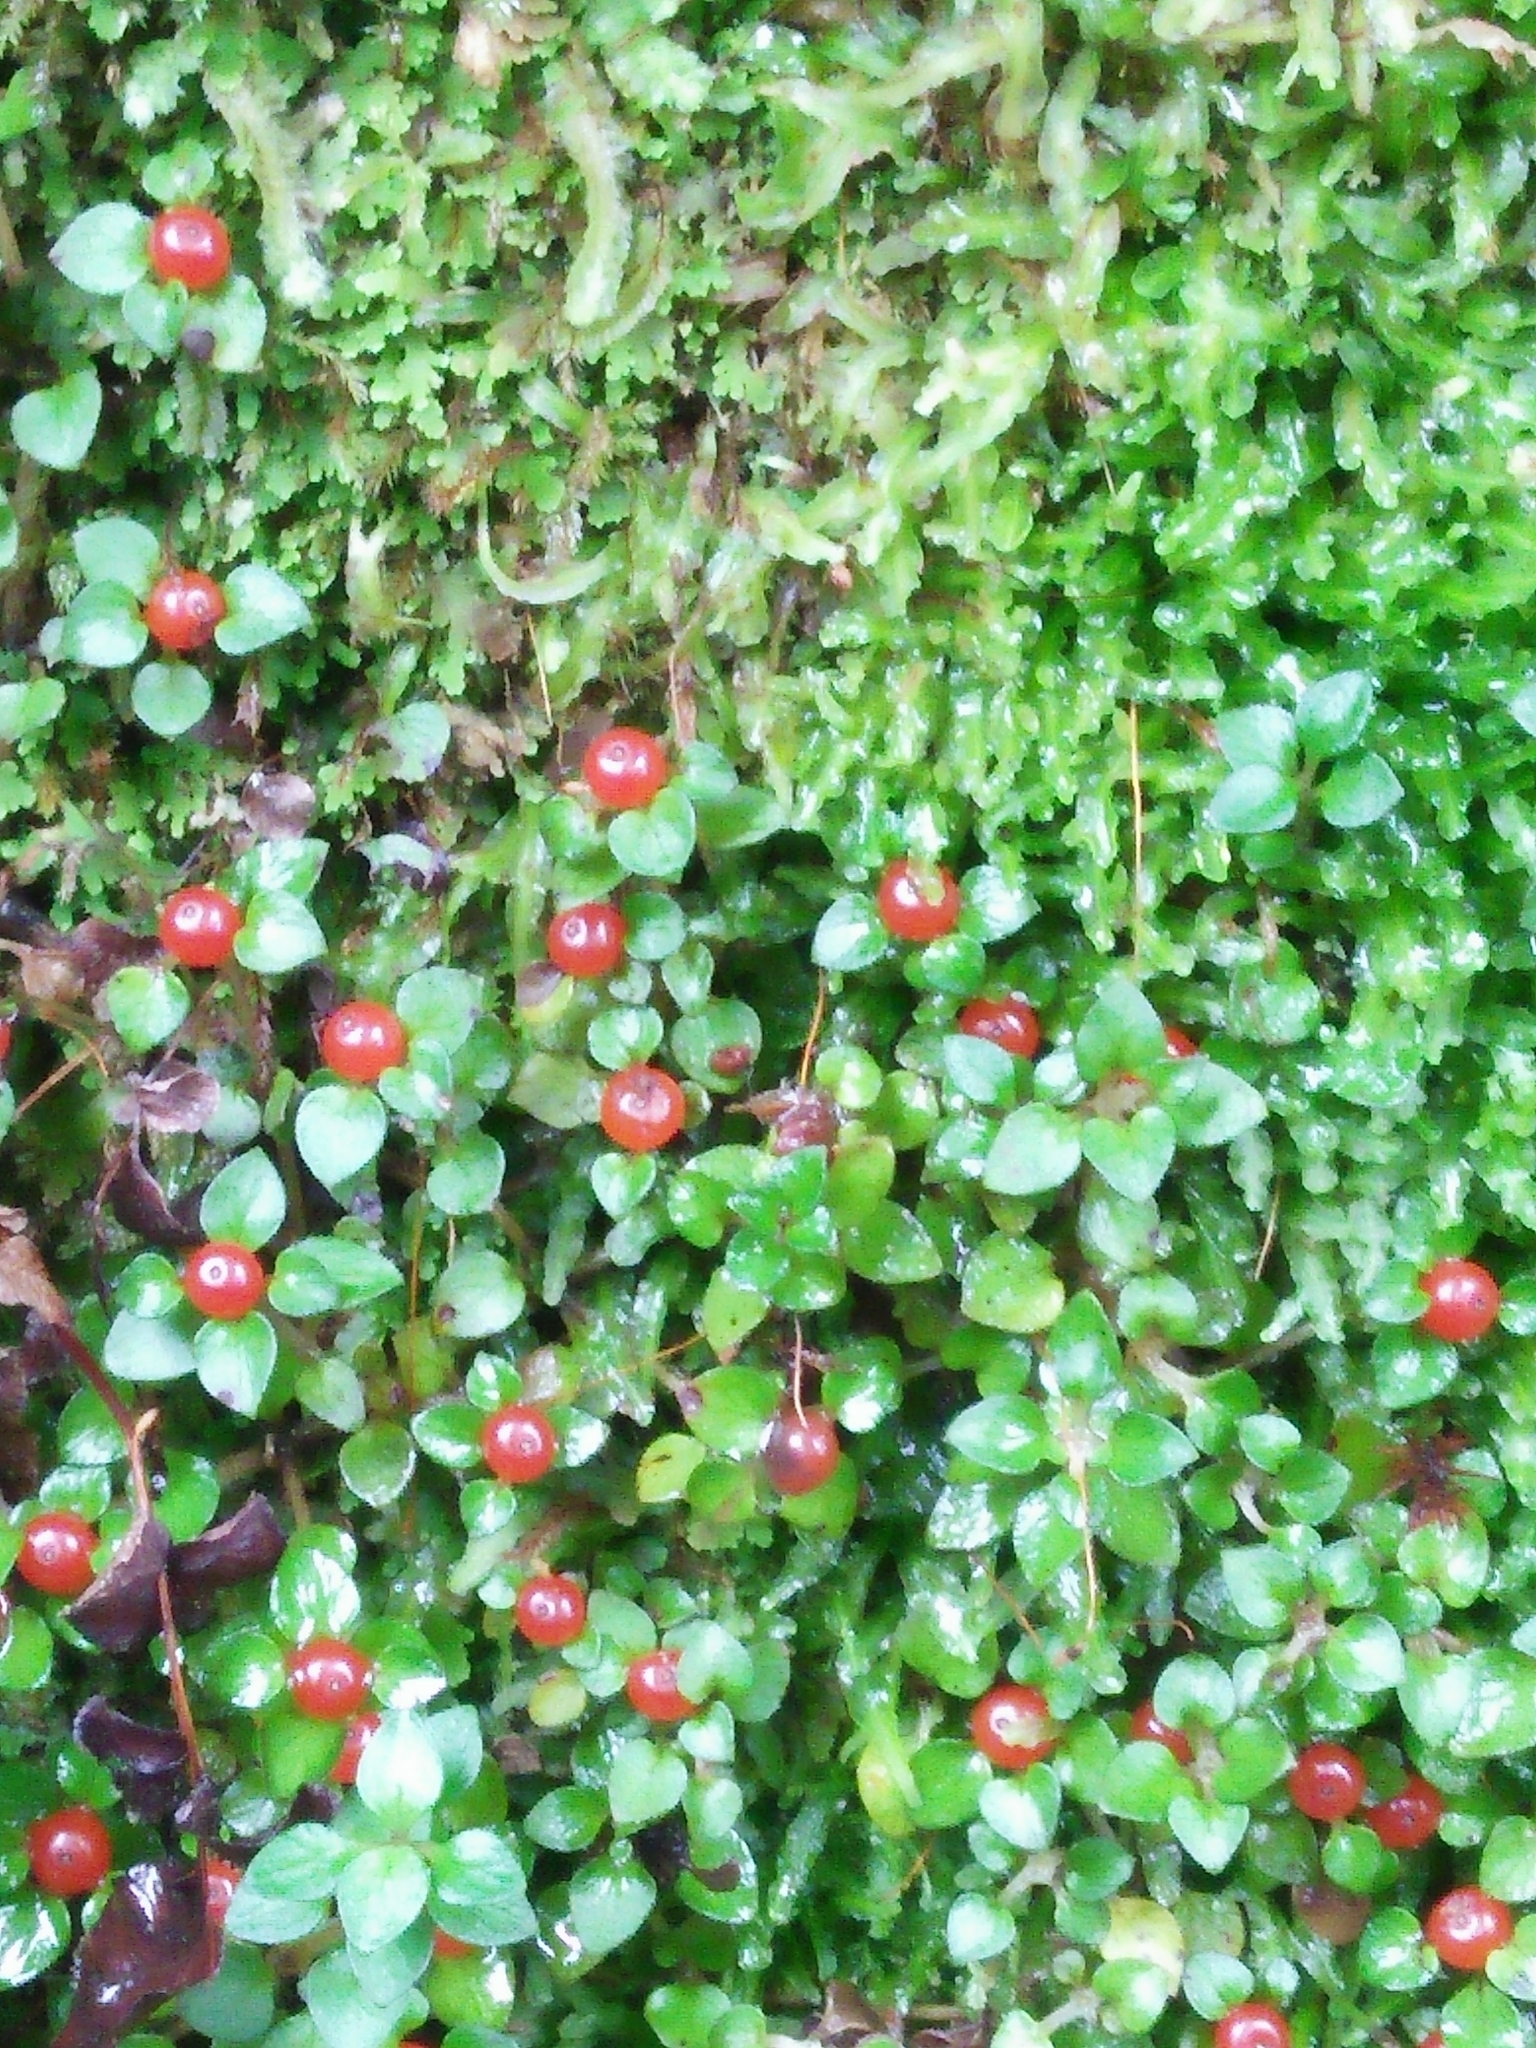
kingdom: Plantae
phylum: Tracheophyta
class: Magnoliopsida
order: Gentianales
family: Rubiaceae
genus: Nertera
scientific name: Nertera granadensis
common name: Beadplant
